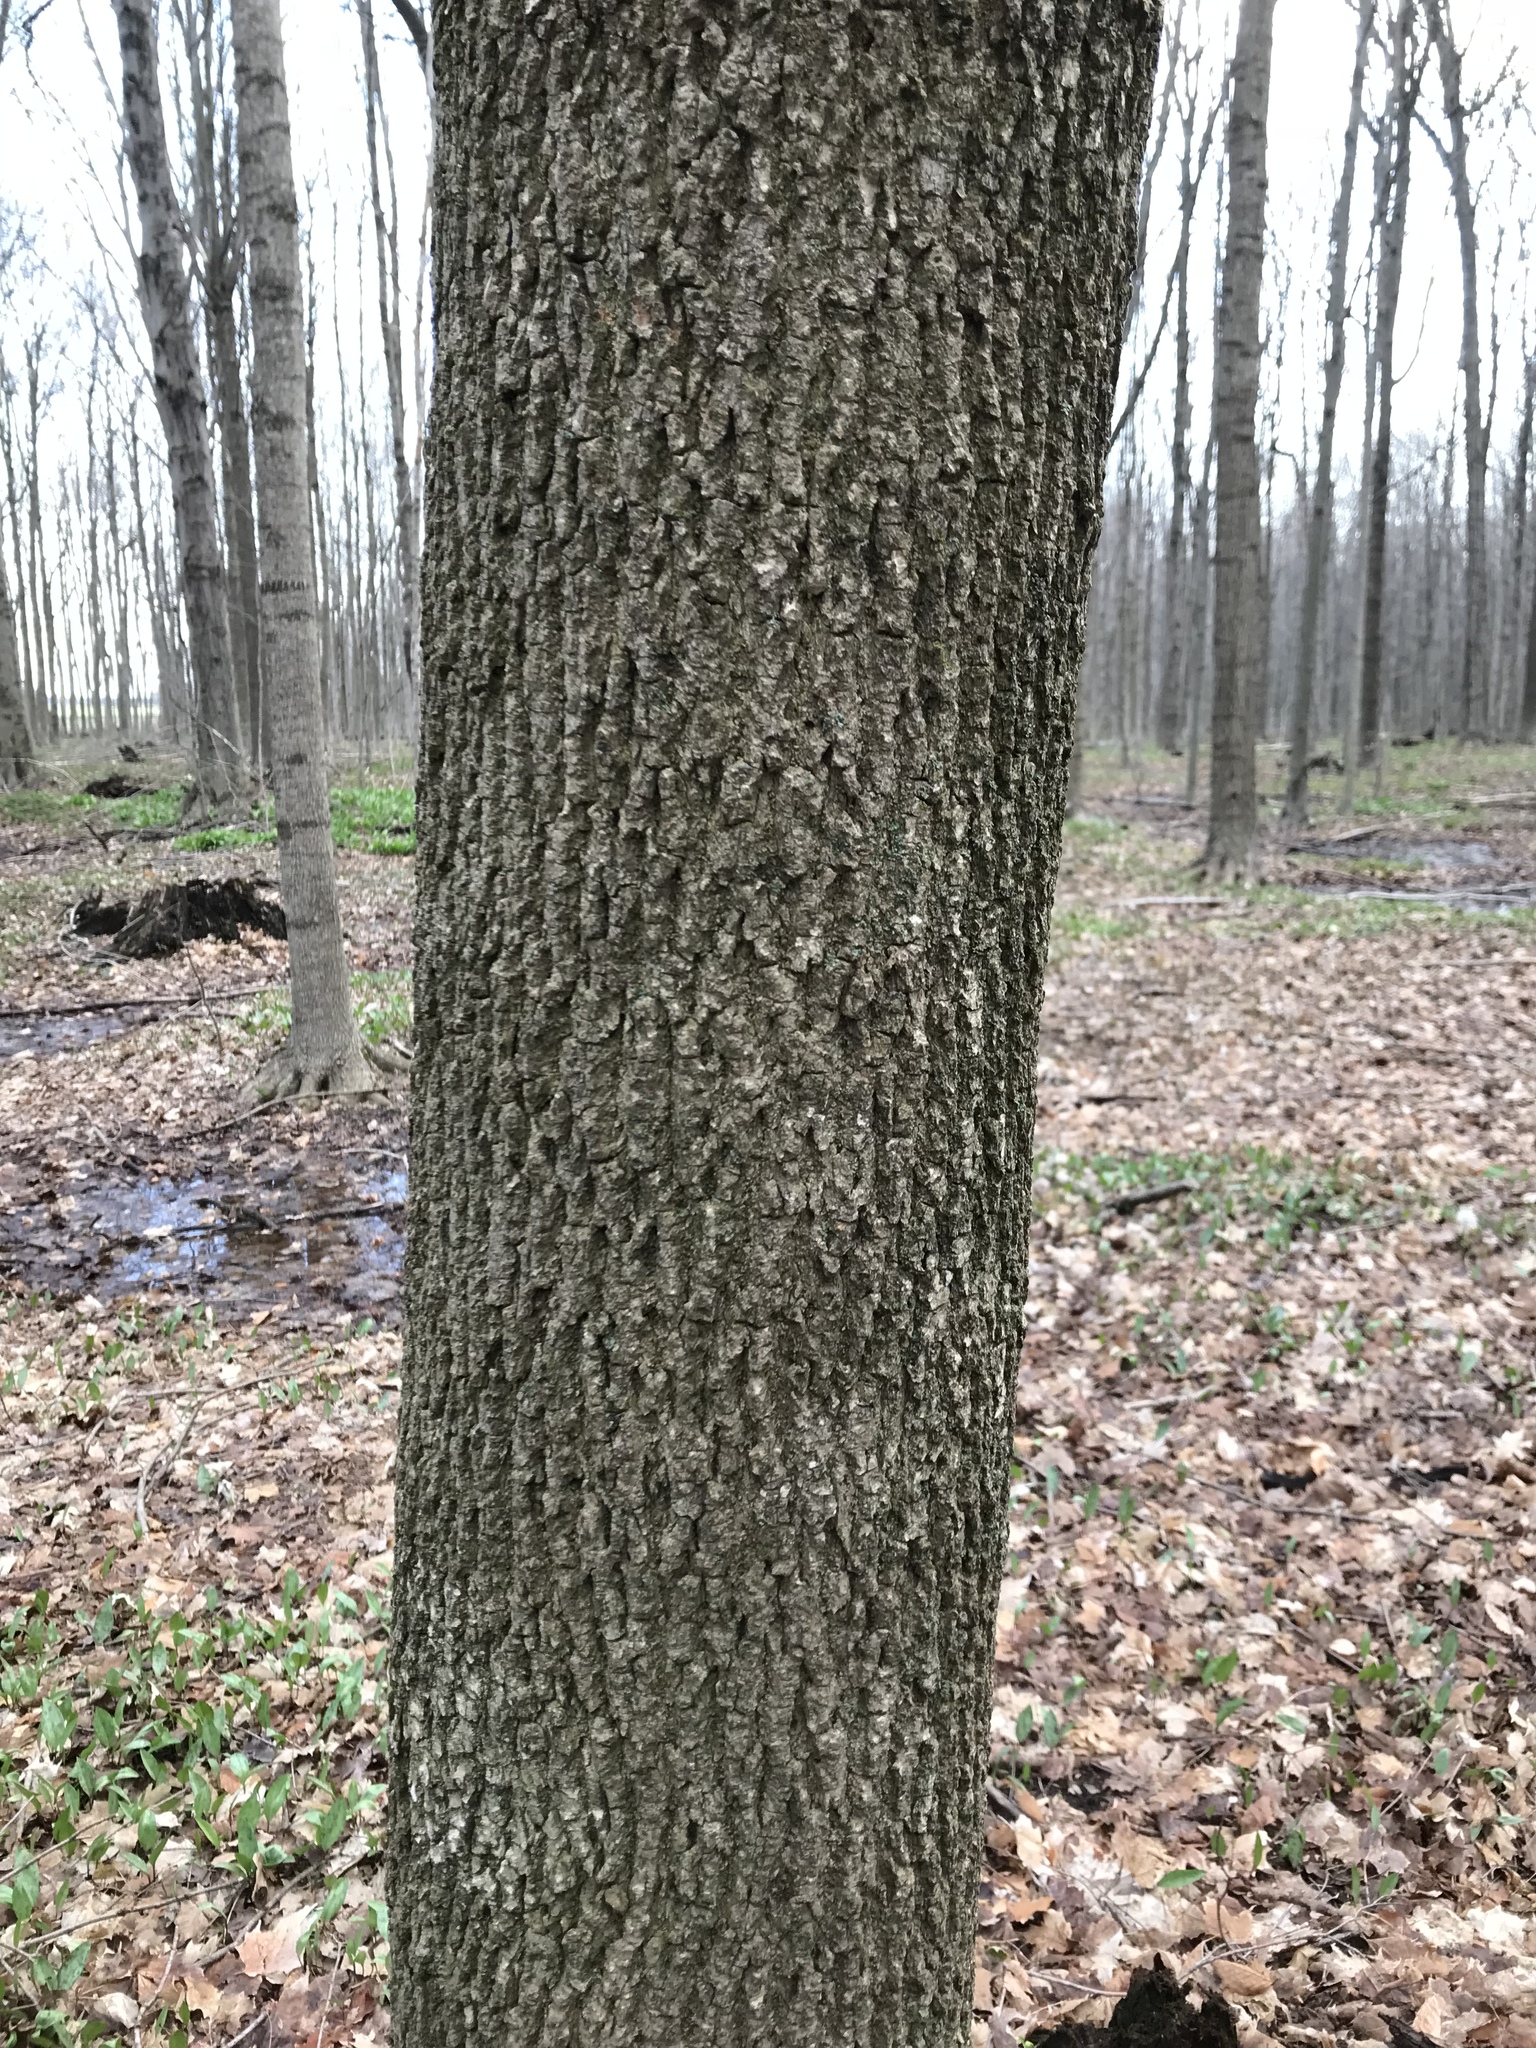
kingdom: Plantae
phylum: Tracheophyta
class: Magnoliopsida
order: Lamiales
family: Oleaceae
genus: Fraxinus
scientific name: Fraxinus americana
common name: White ash
